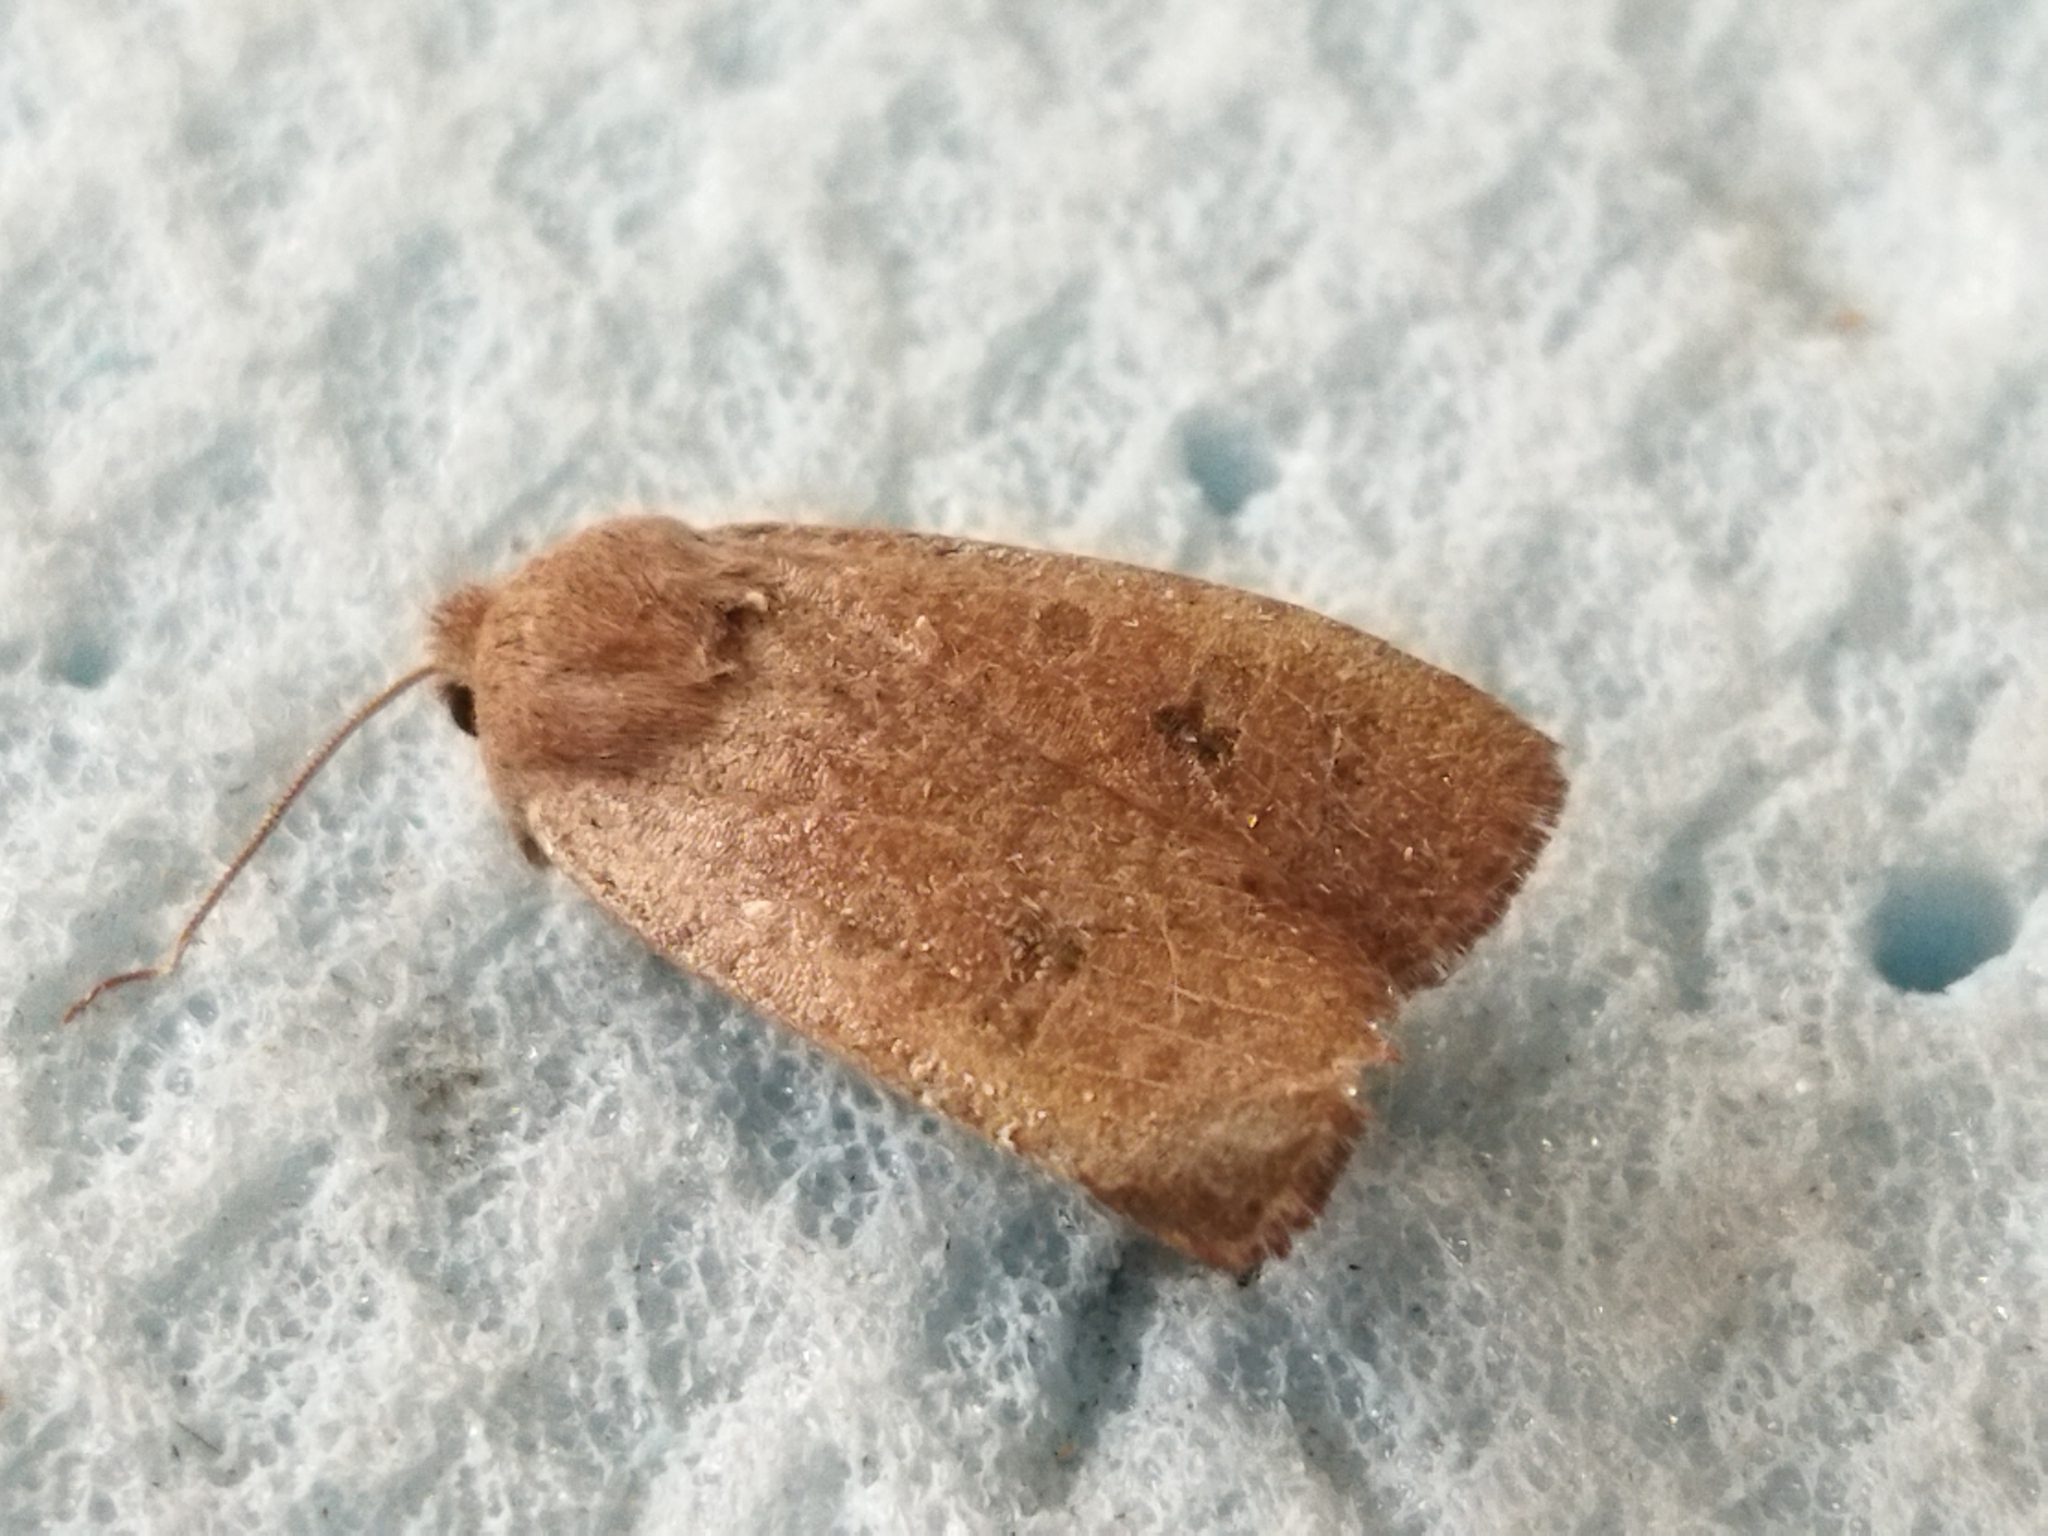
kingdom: Animalia
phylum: Arthropoda
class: Insecta
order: Lepidoptera
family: Noctuidae
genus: Conistra
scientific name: Conistra vaccinii
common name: Chestnut
